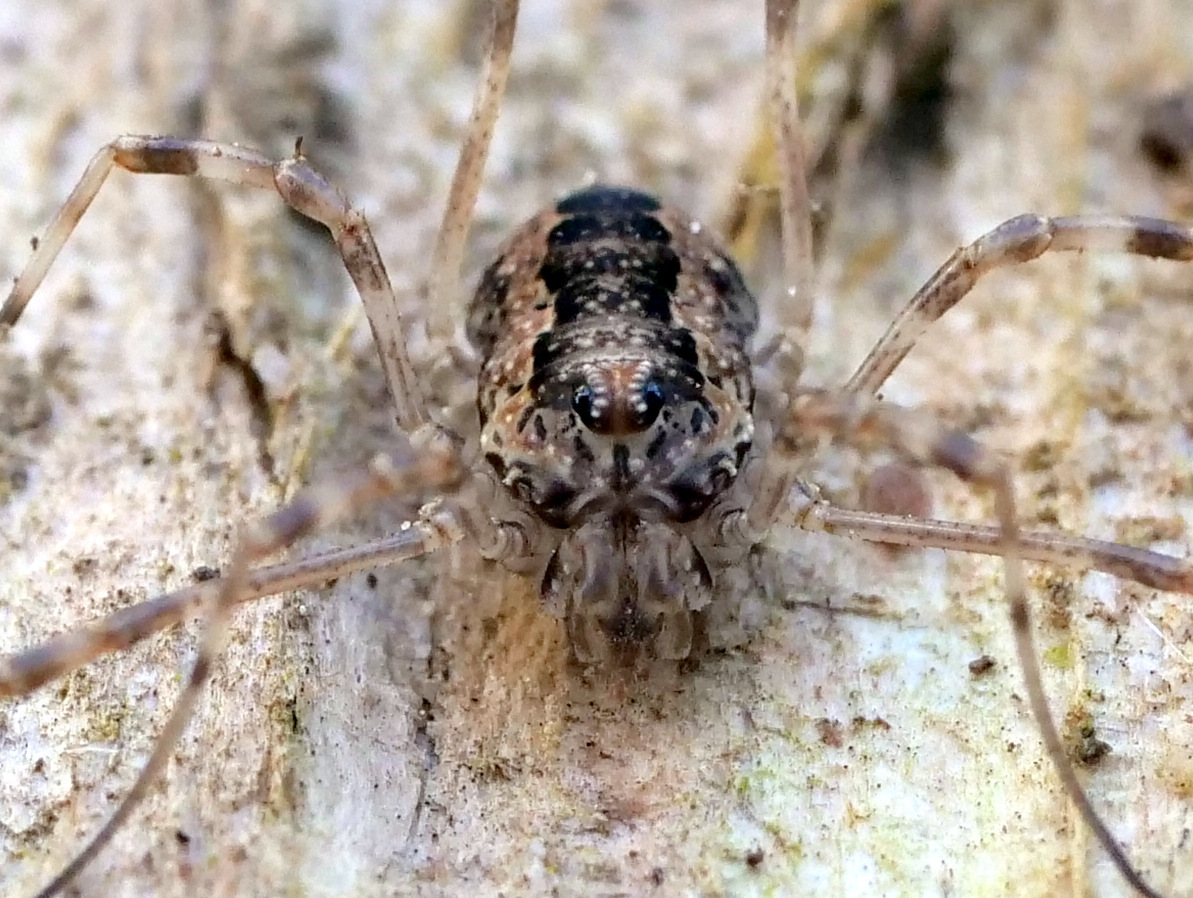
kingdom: Animalia
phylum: Arthropoda
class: Arachnida
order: Opiliones
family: Phalangiidae
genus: Rilaena
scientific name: Rilaena triangularis
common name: Spring harvestman
